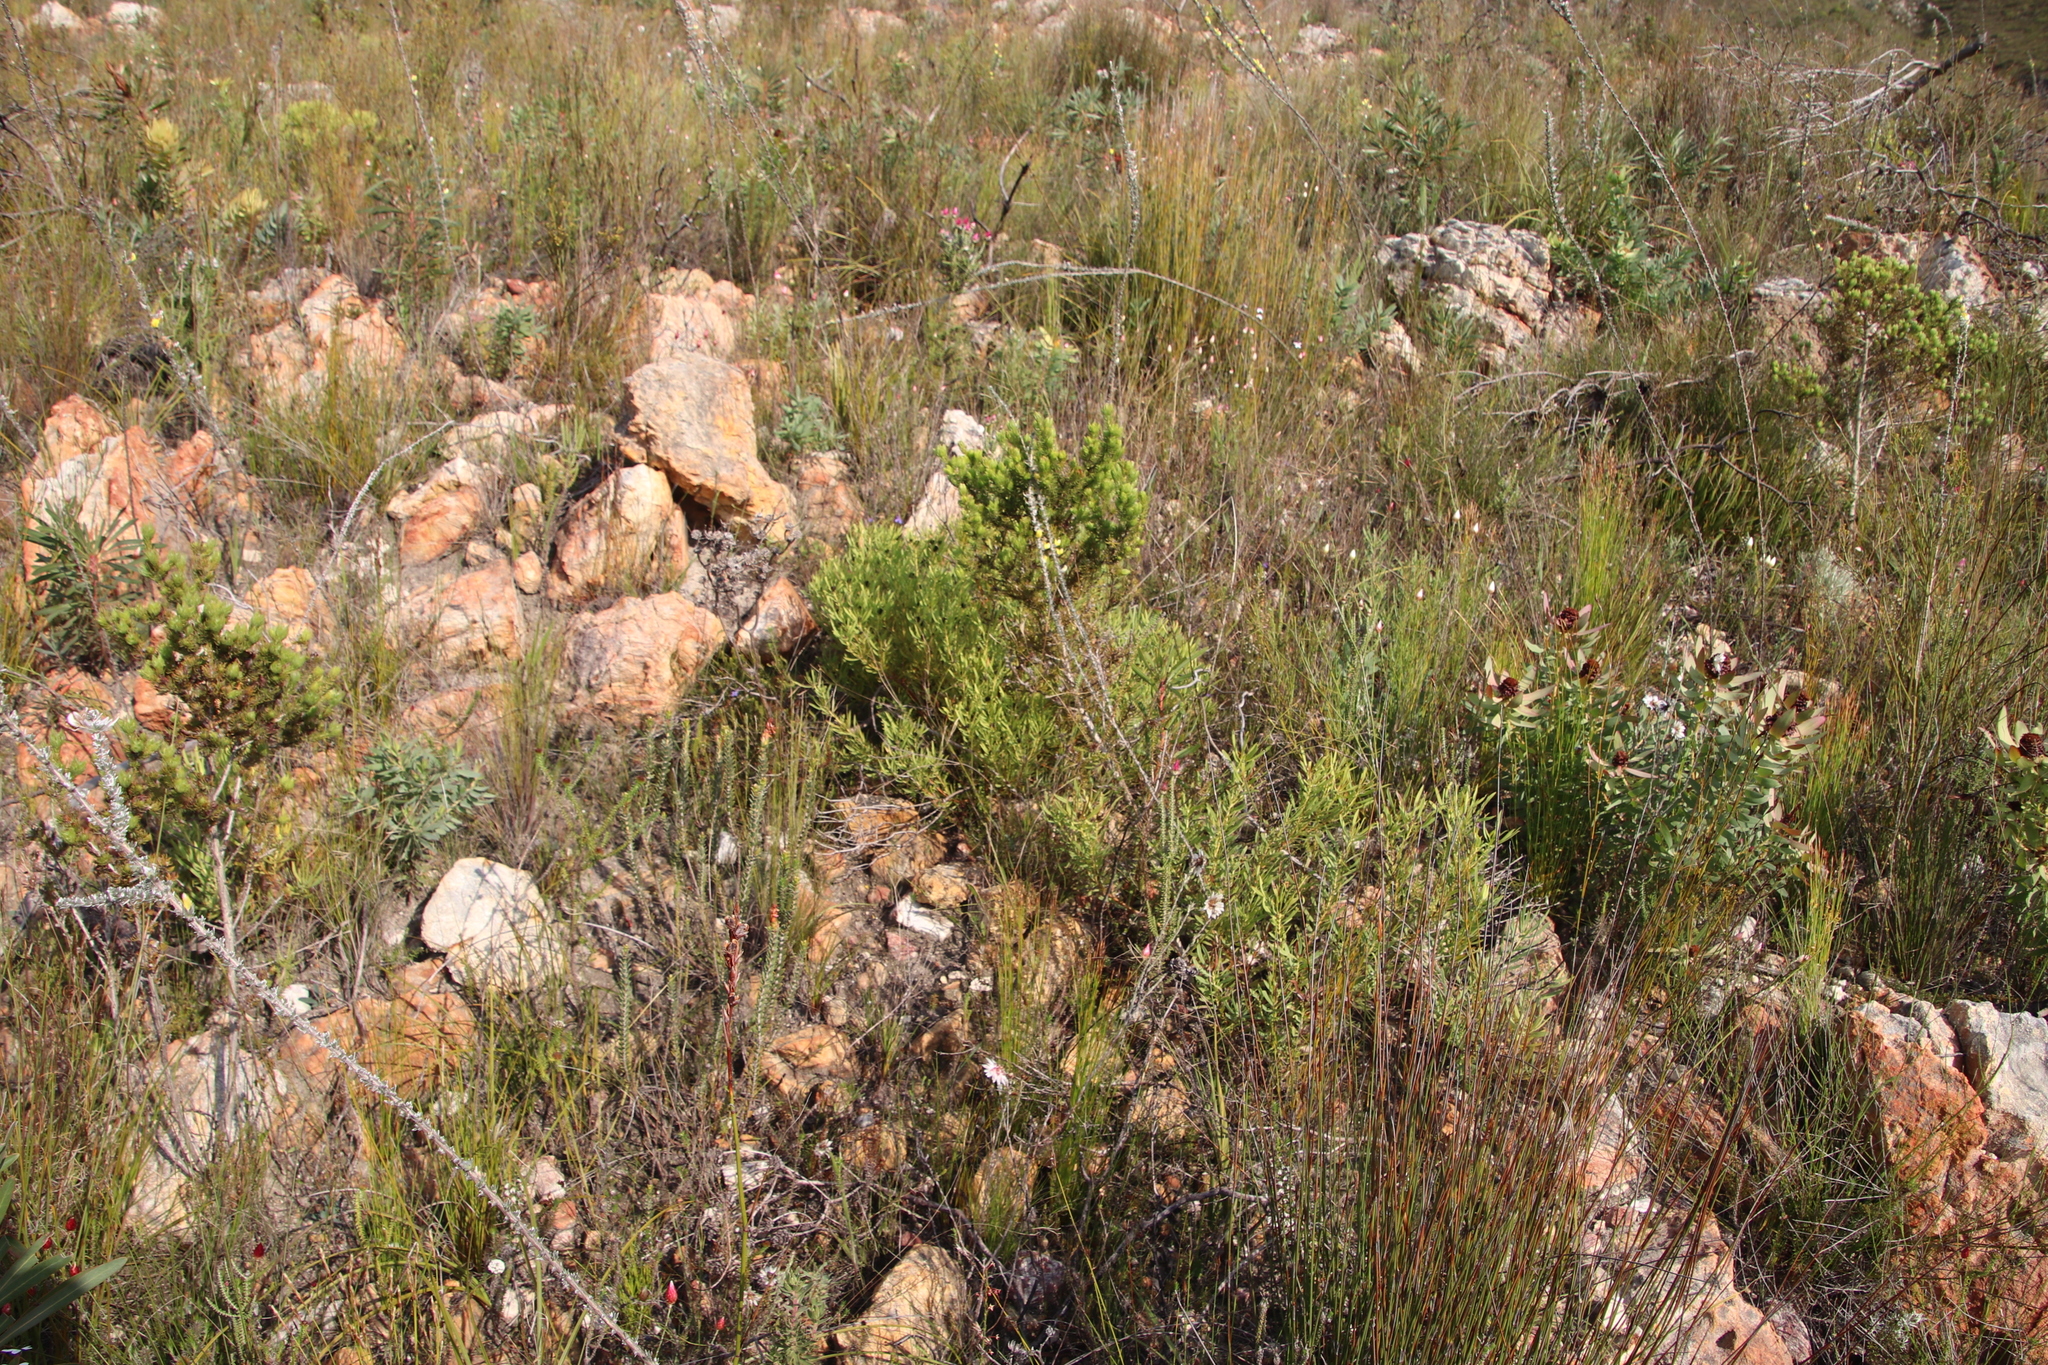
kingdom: Plantae
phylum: Tracheophyta
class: Magnoliopsida
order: Myrtales
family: Penaeaceae
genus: Saltera
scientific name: Saltera sarcocolla
